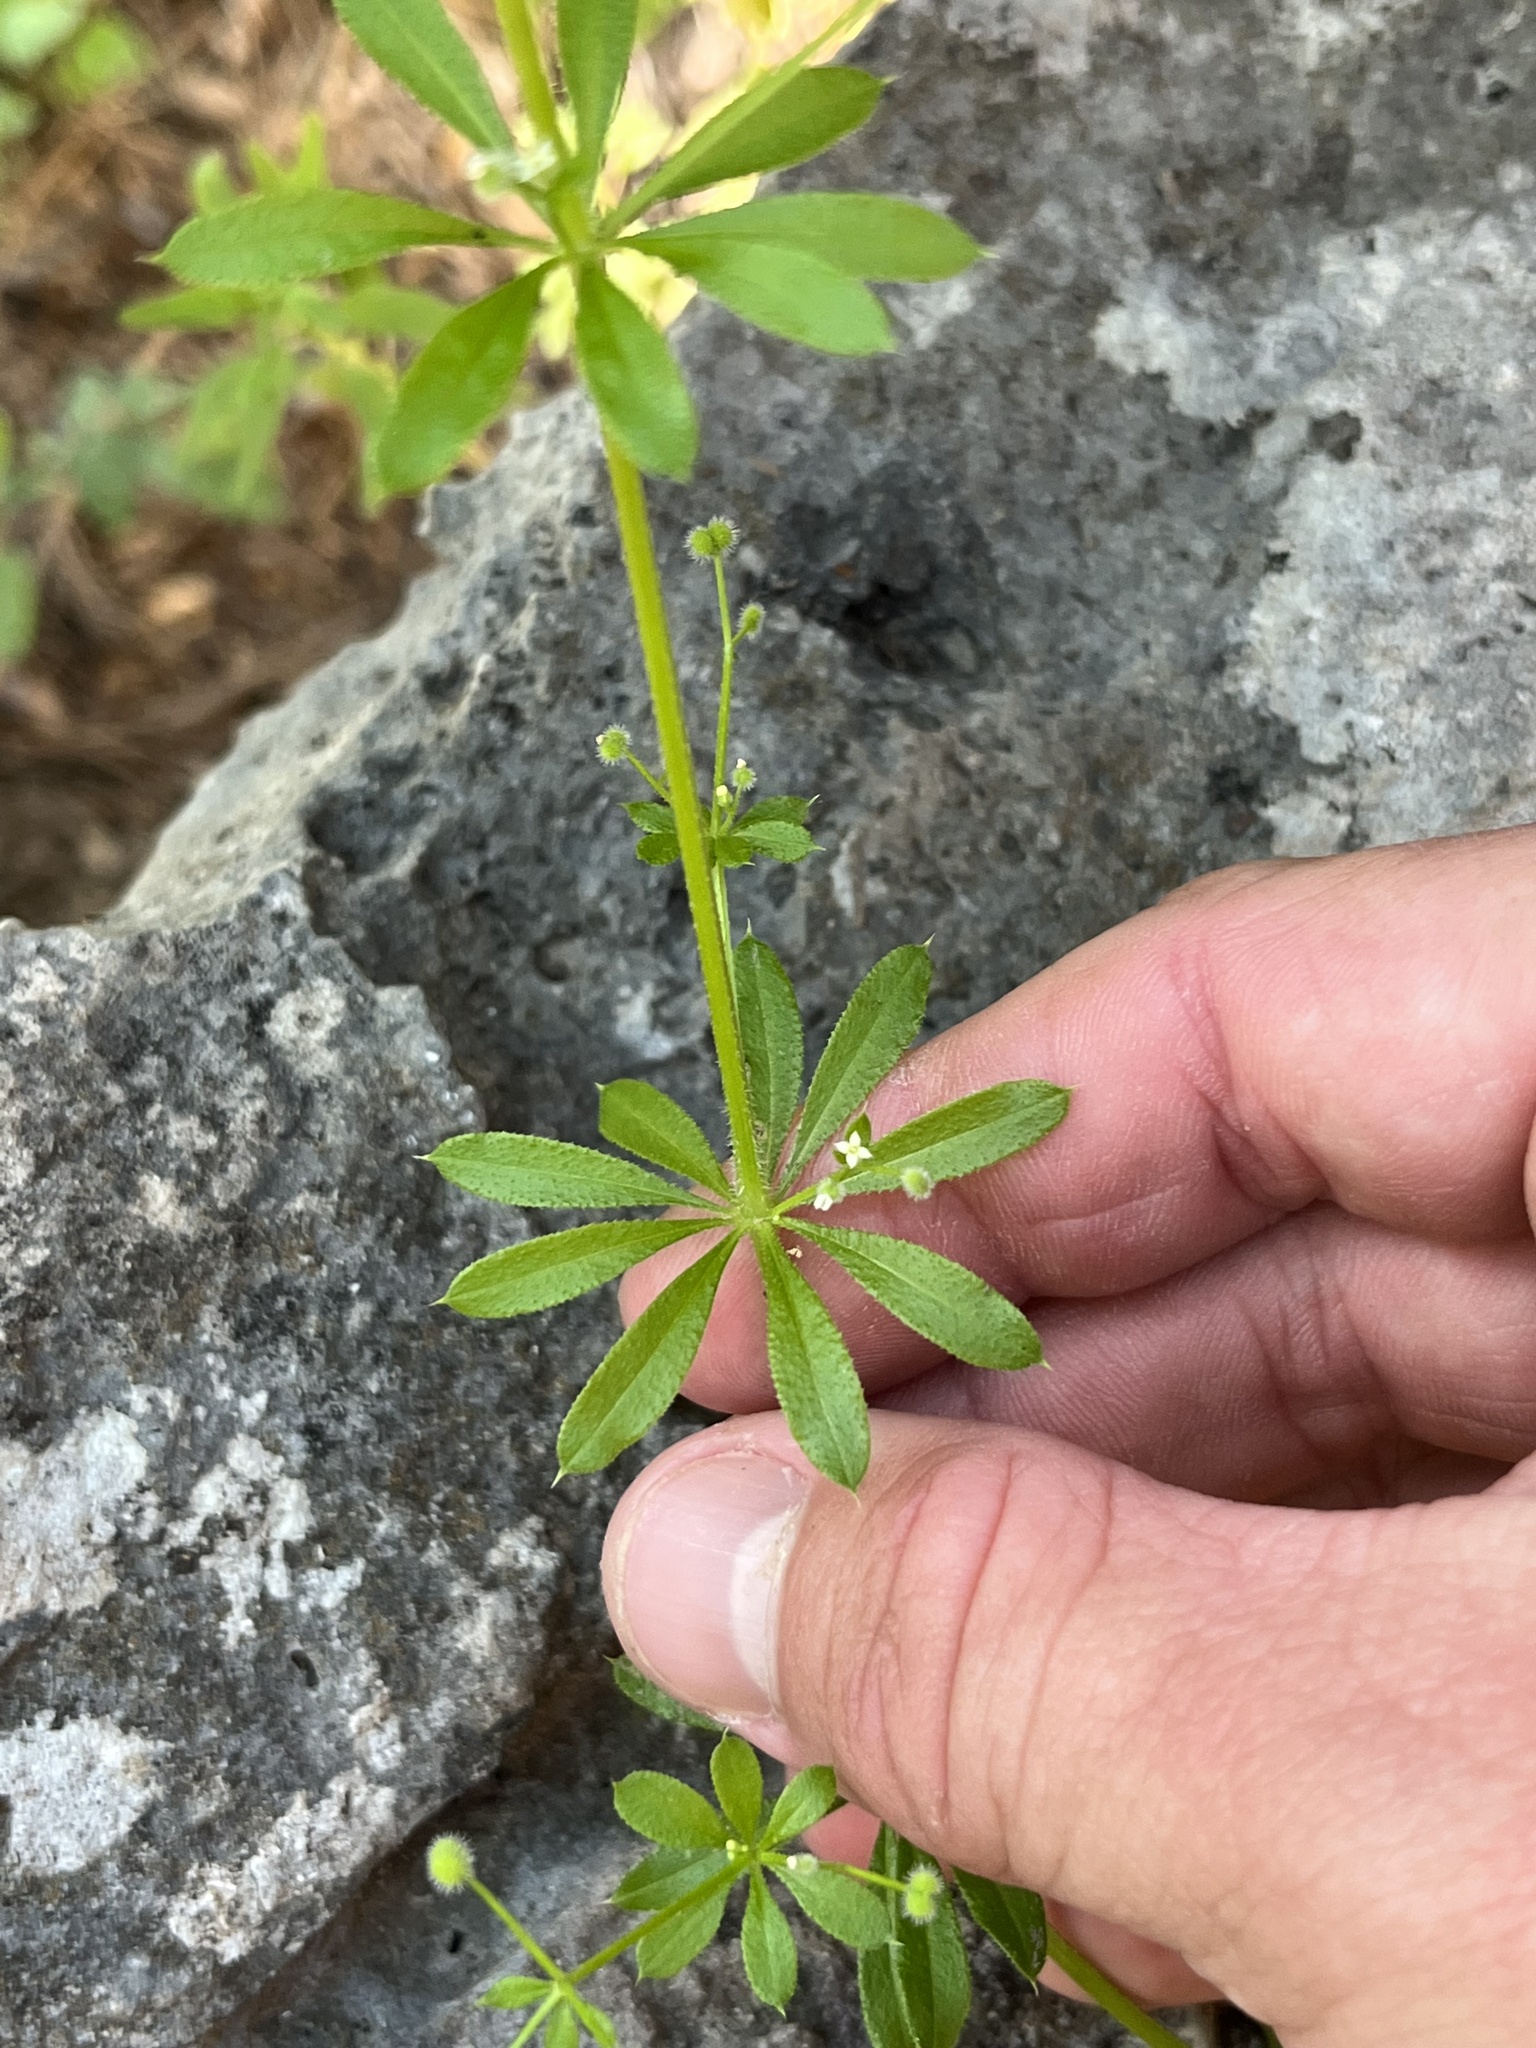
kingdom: Plantae
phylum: Tracheophyta
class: Magnoliopsida
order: Gentianales
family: Rubiaceae
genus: Galium
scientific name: Galium aparine
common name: Cleavers
